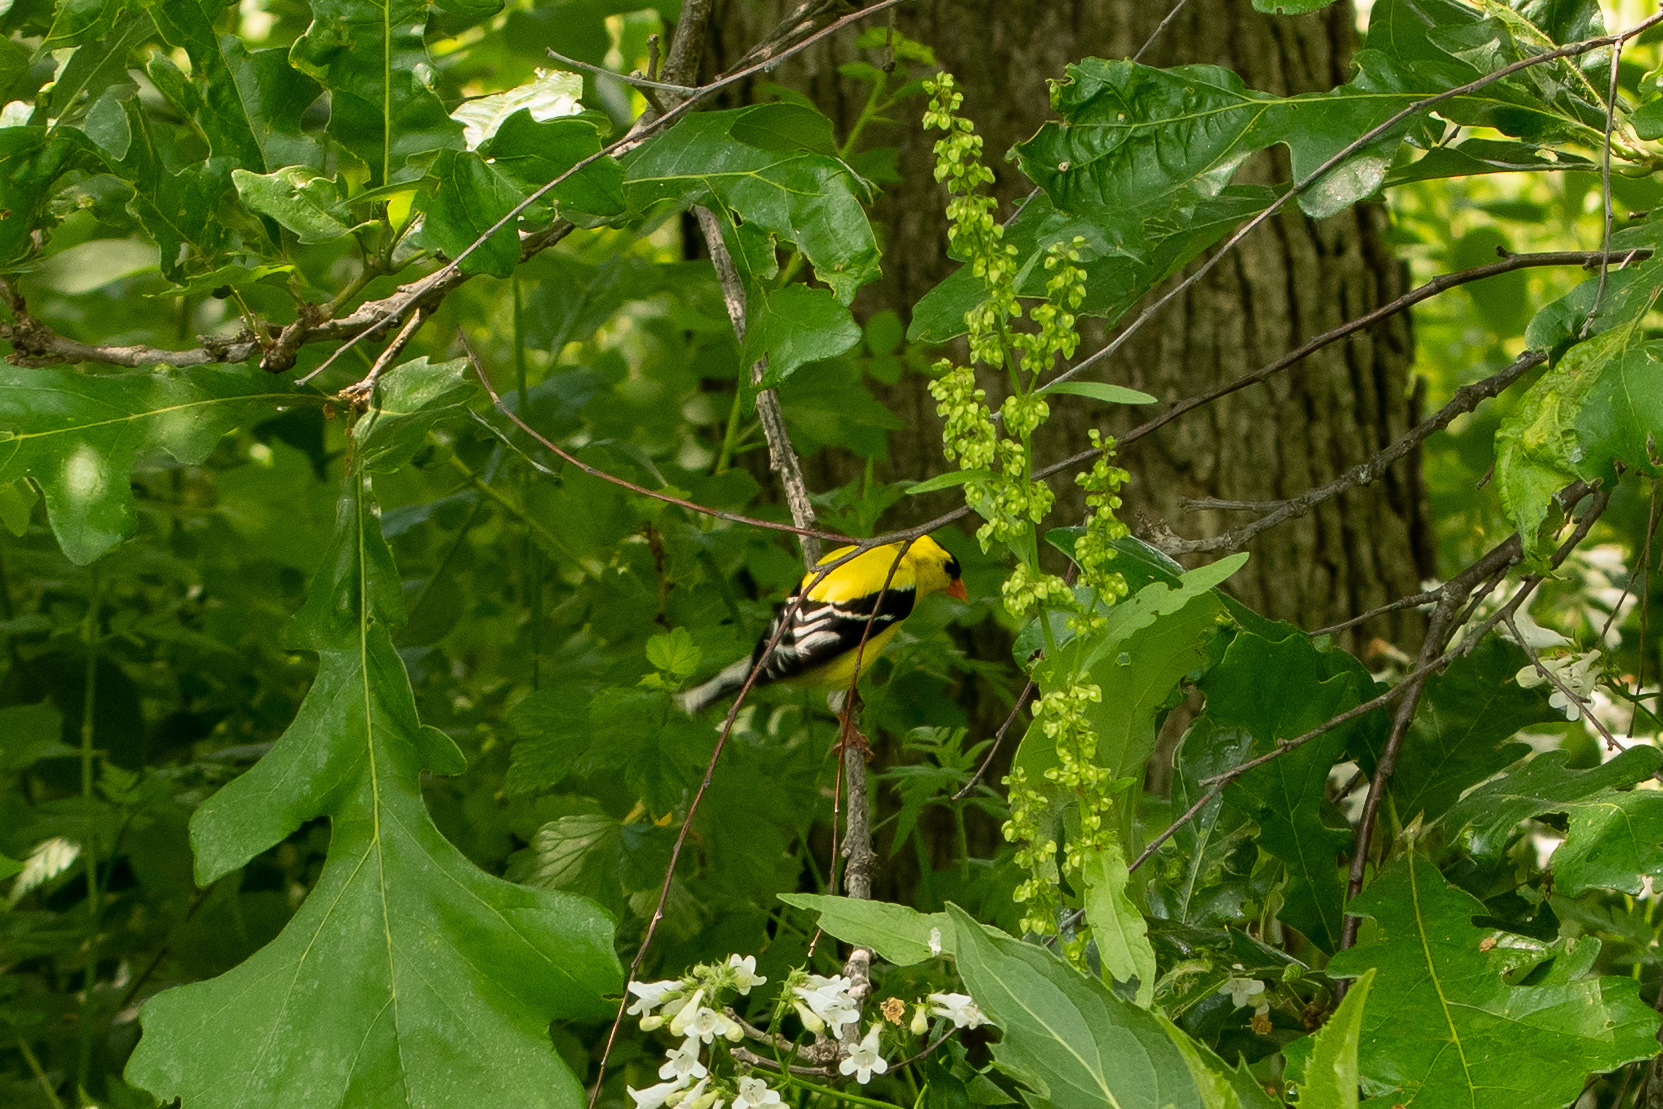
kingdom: Animalia
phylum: Chordata
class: Aves
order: Passeriformes
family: Fringillidae
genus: Spinus
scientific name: Spinus tristis
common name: American goldfinch
